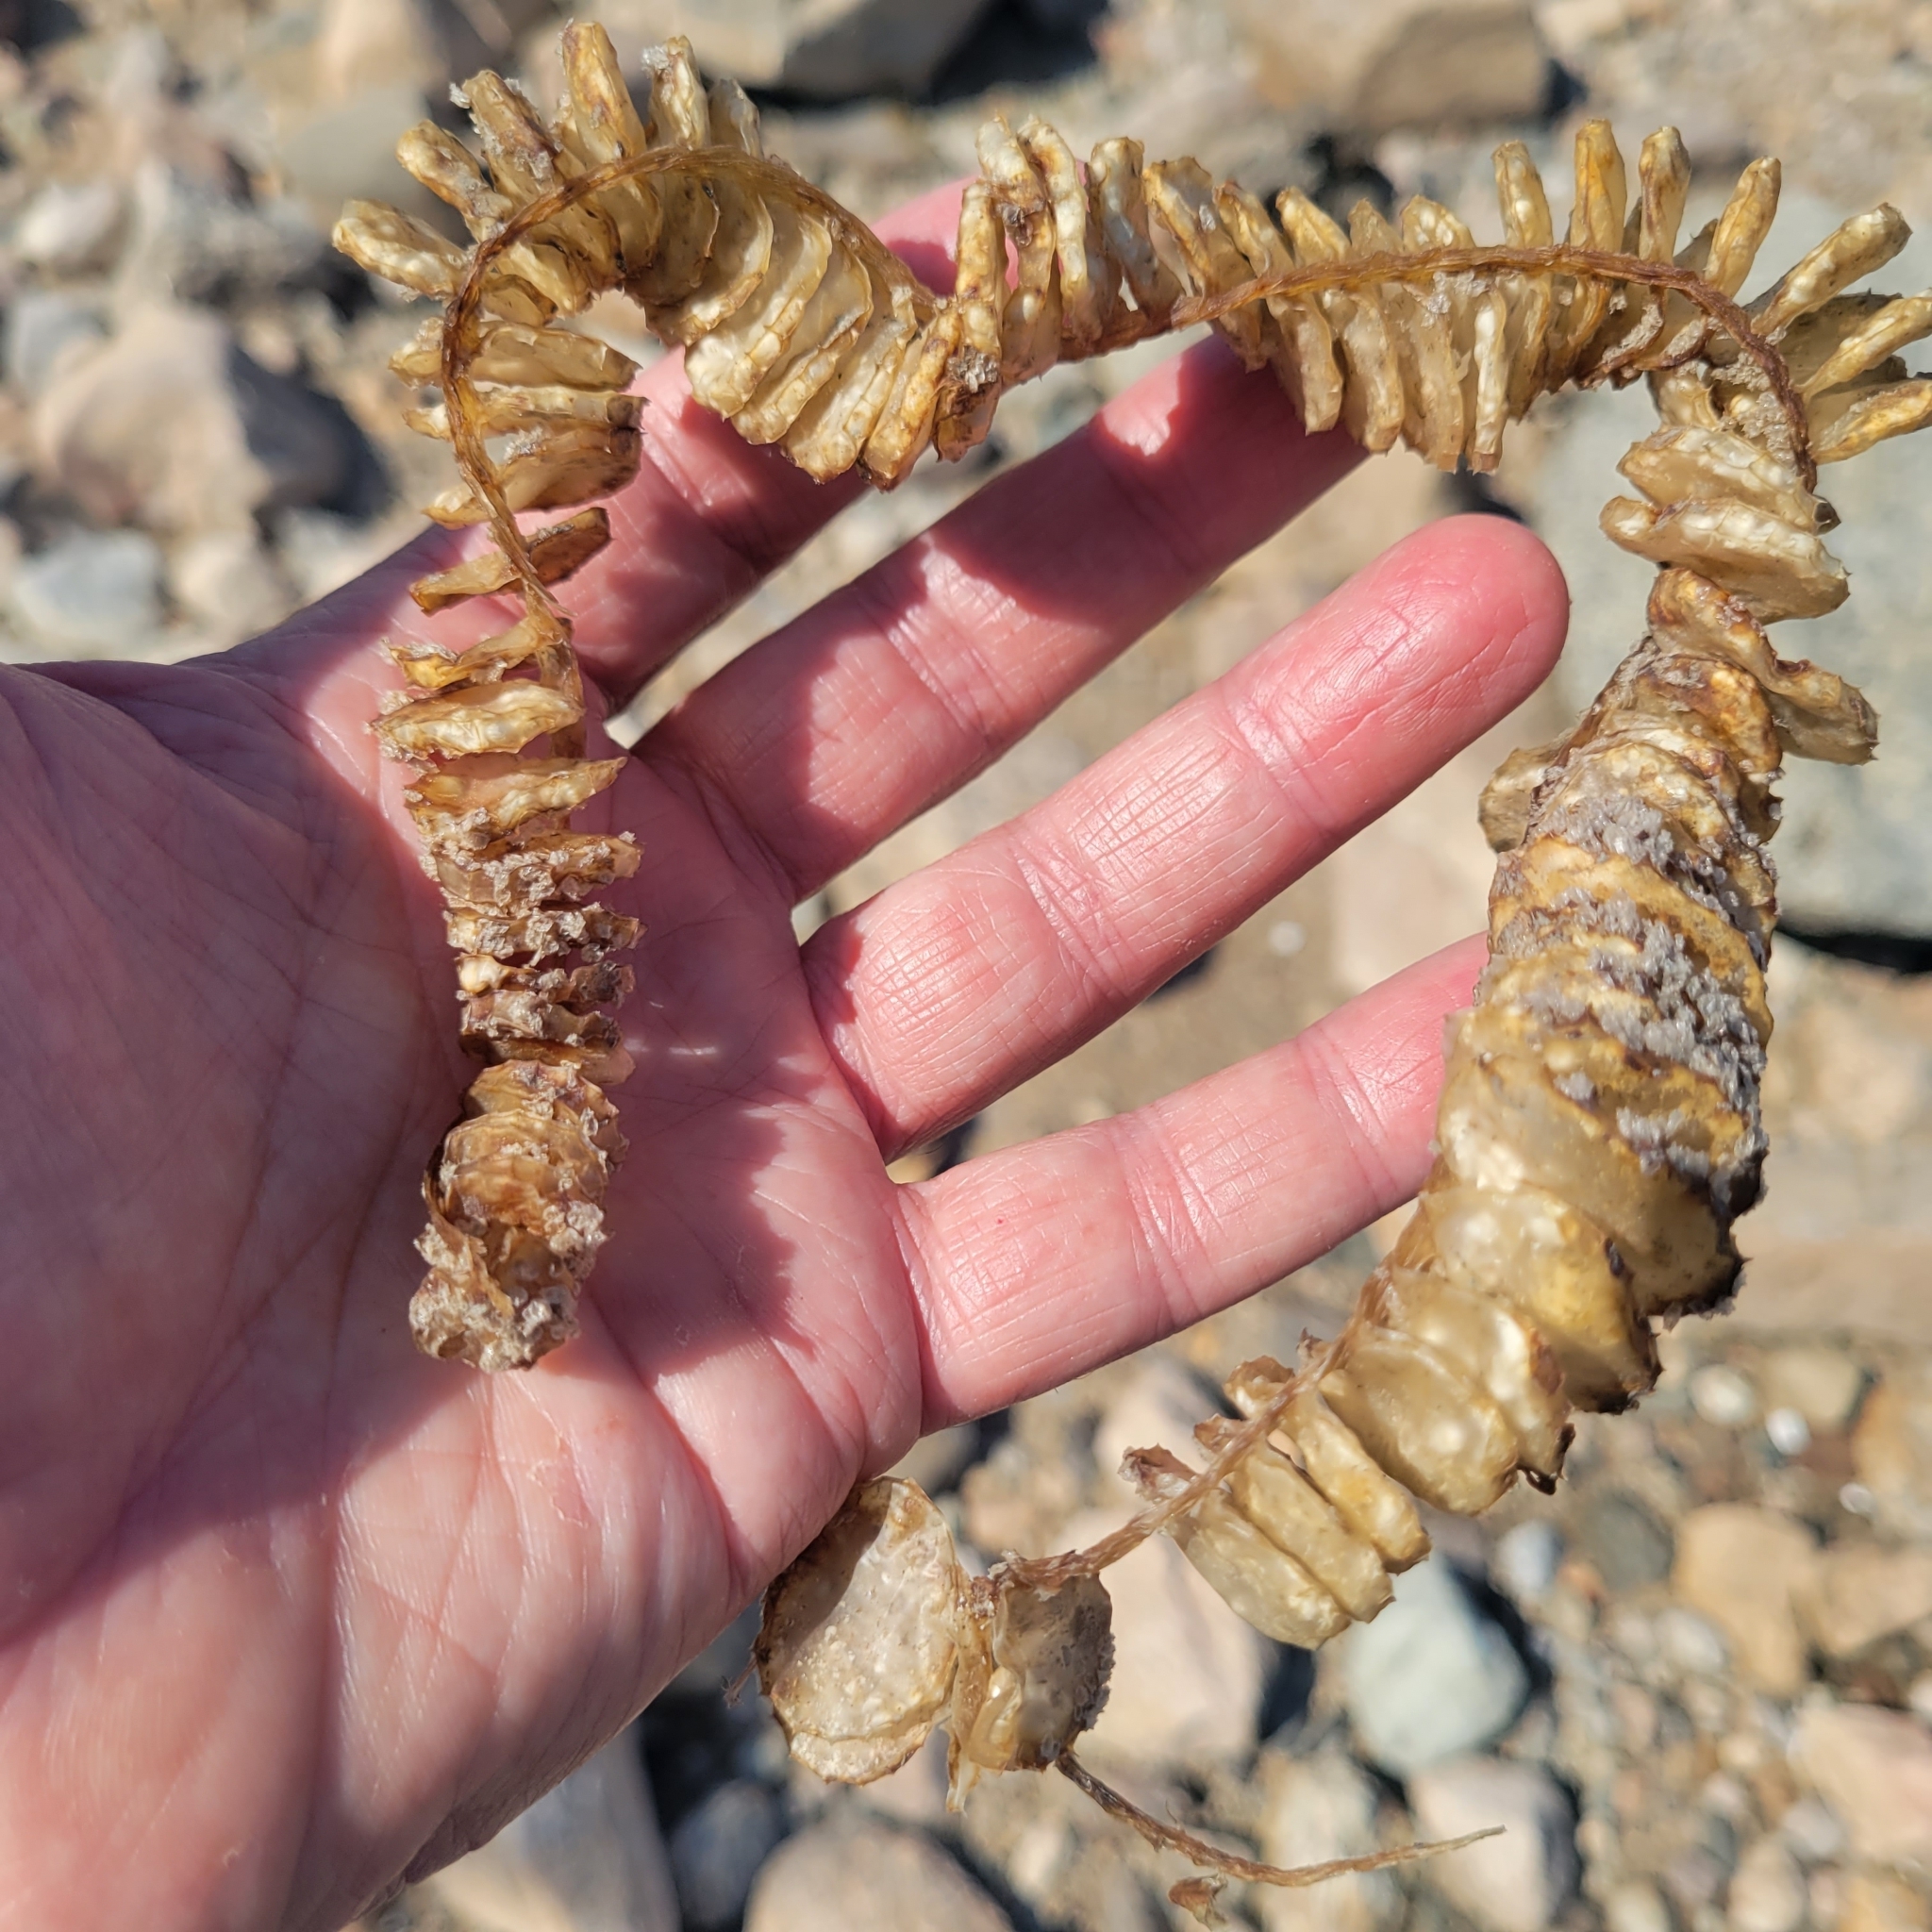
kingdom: Animalia
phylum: Mollusca
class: Gastropoda
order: Neogastropoda
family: Busyconidae
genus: Busycon
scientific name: Busycon carica
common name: Knobbed whelk
